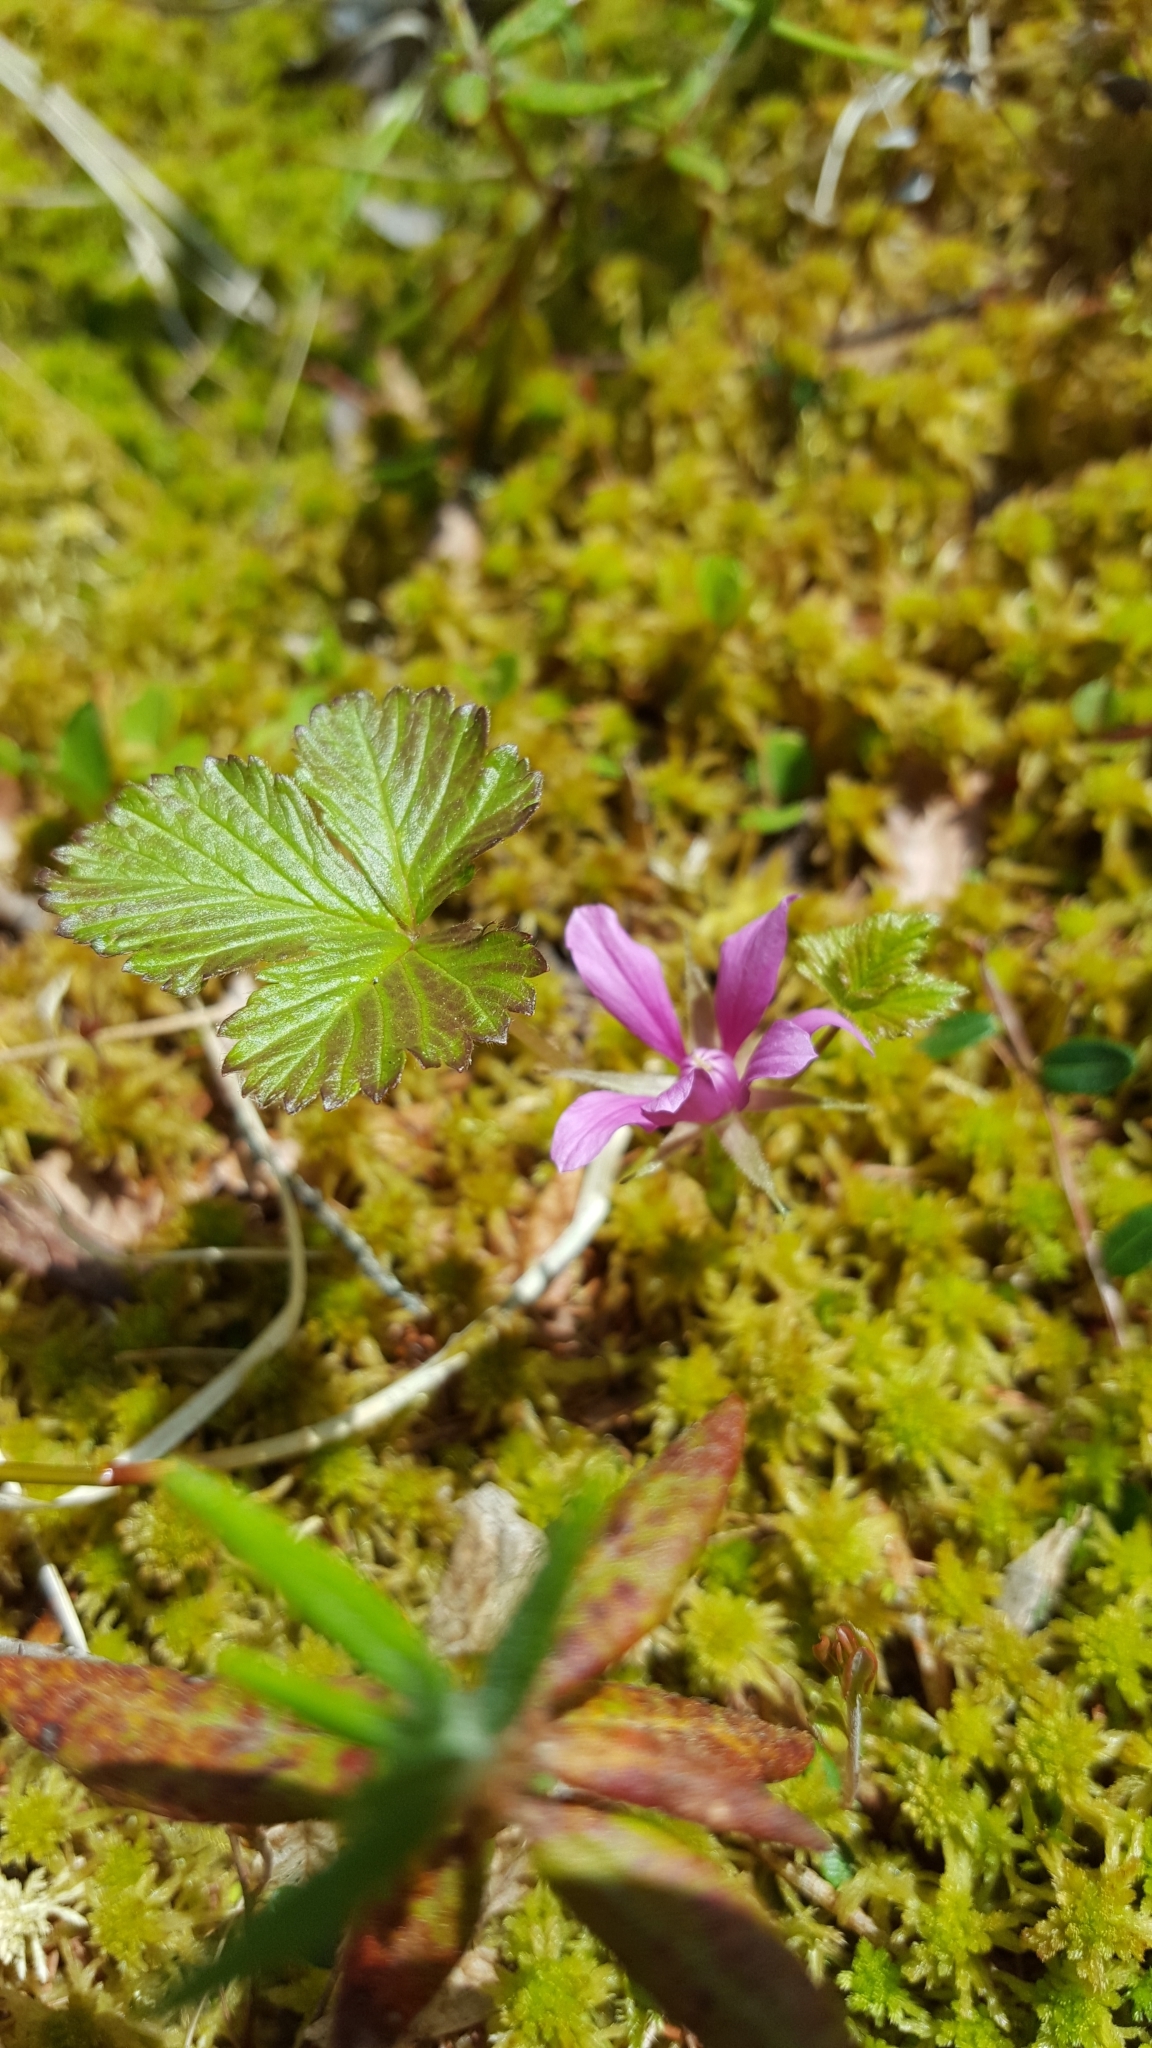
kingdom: Plantae
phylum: Tracheophyta
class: Magnoliopsida
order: Rosales
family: Rosaceae
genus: Rubus
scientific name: Rubus arcticus
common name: Arctic bramble
